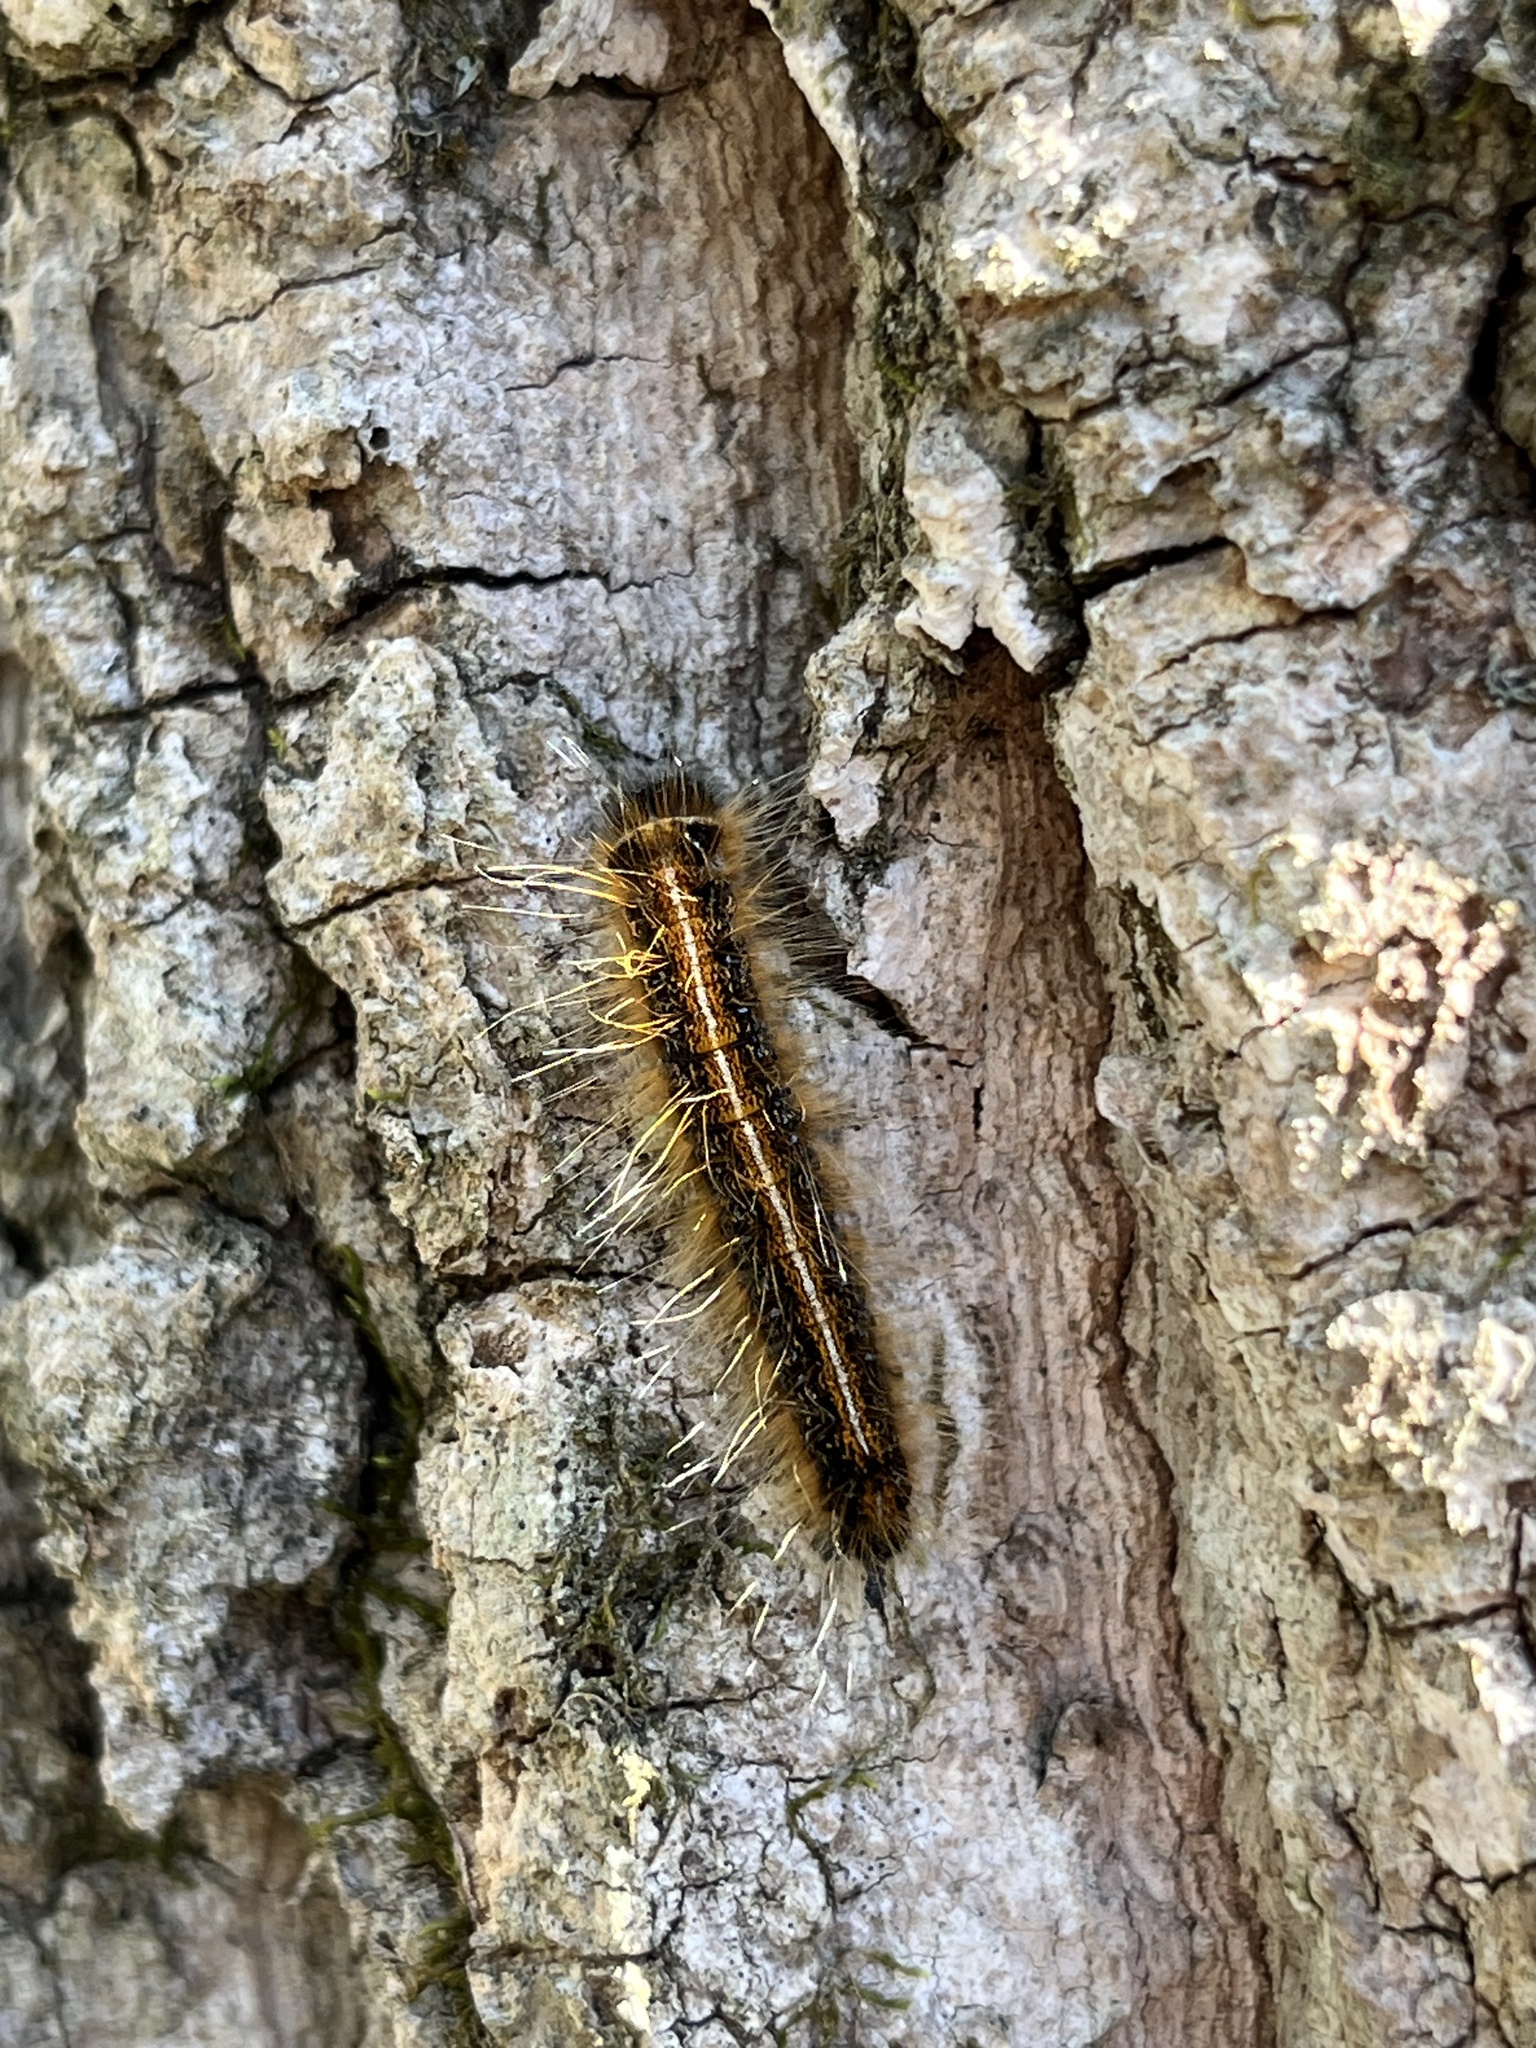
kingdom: Animalia
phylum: Arthropoda
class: Insecta
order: Lepidoptera
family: Lasiocampidae
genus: Malacosoma
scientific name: Malacosoma americana
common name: Eastern tent caterpillar moth
